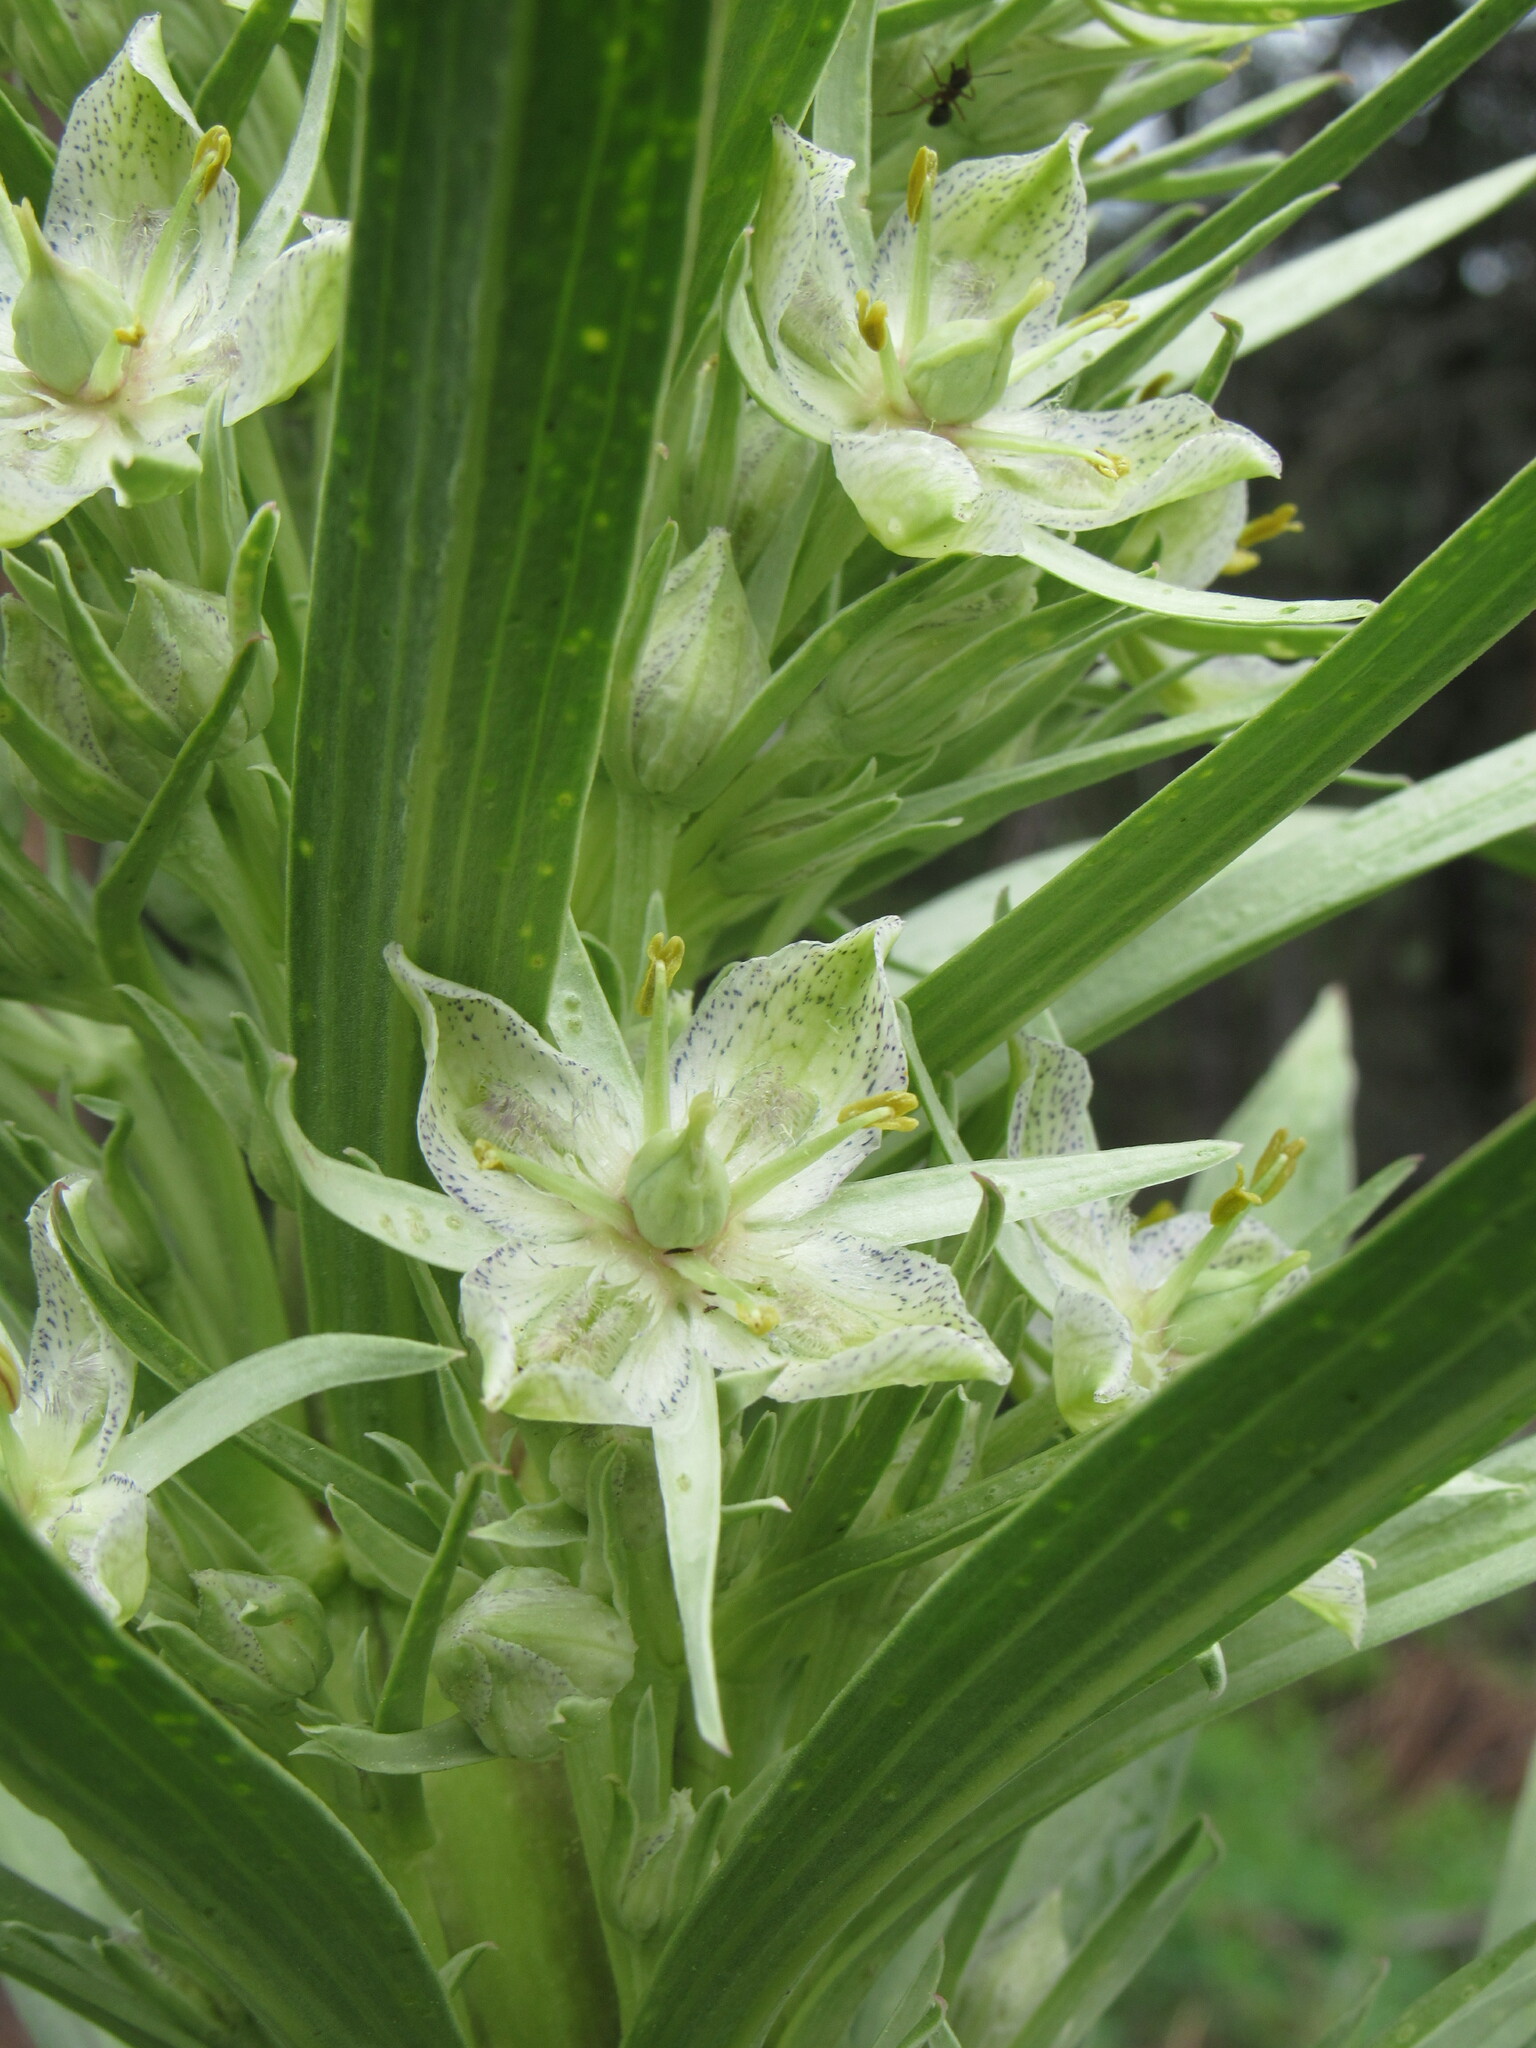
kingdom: Plantae
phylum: Tracheophyta
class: Magnoliopsida
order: Gentianales
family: Gentianaceae
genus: Frasera
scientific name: Frasera speciosa
